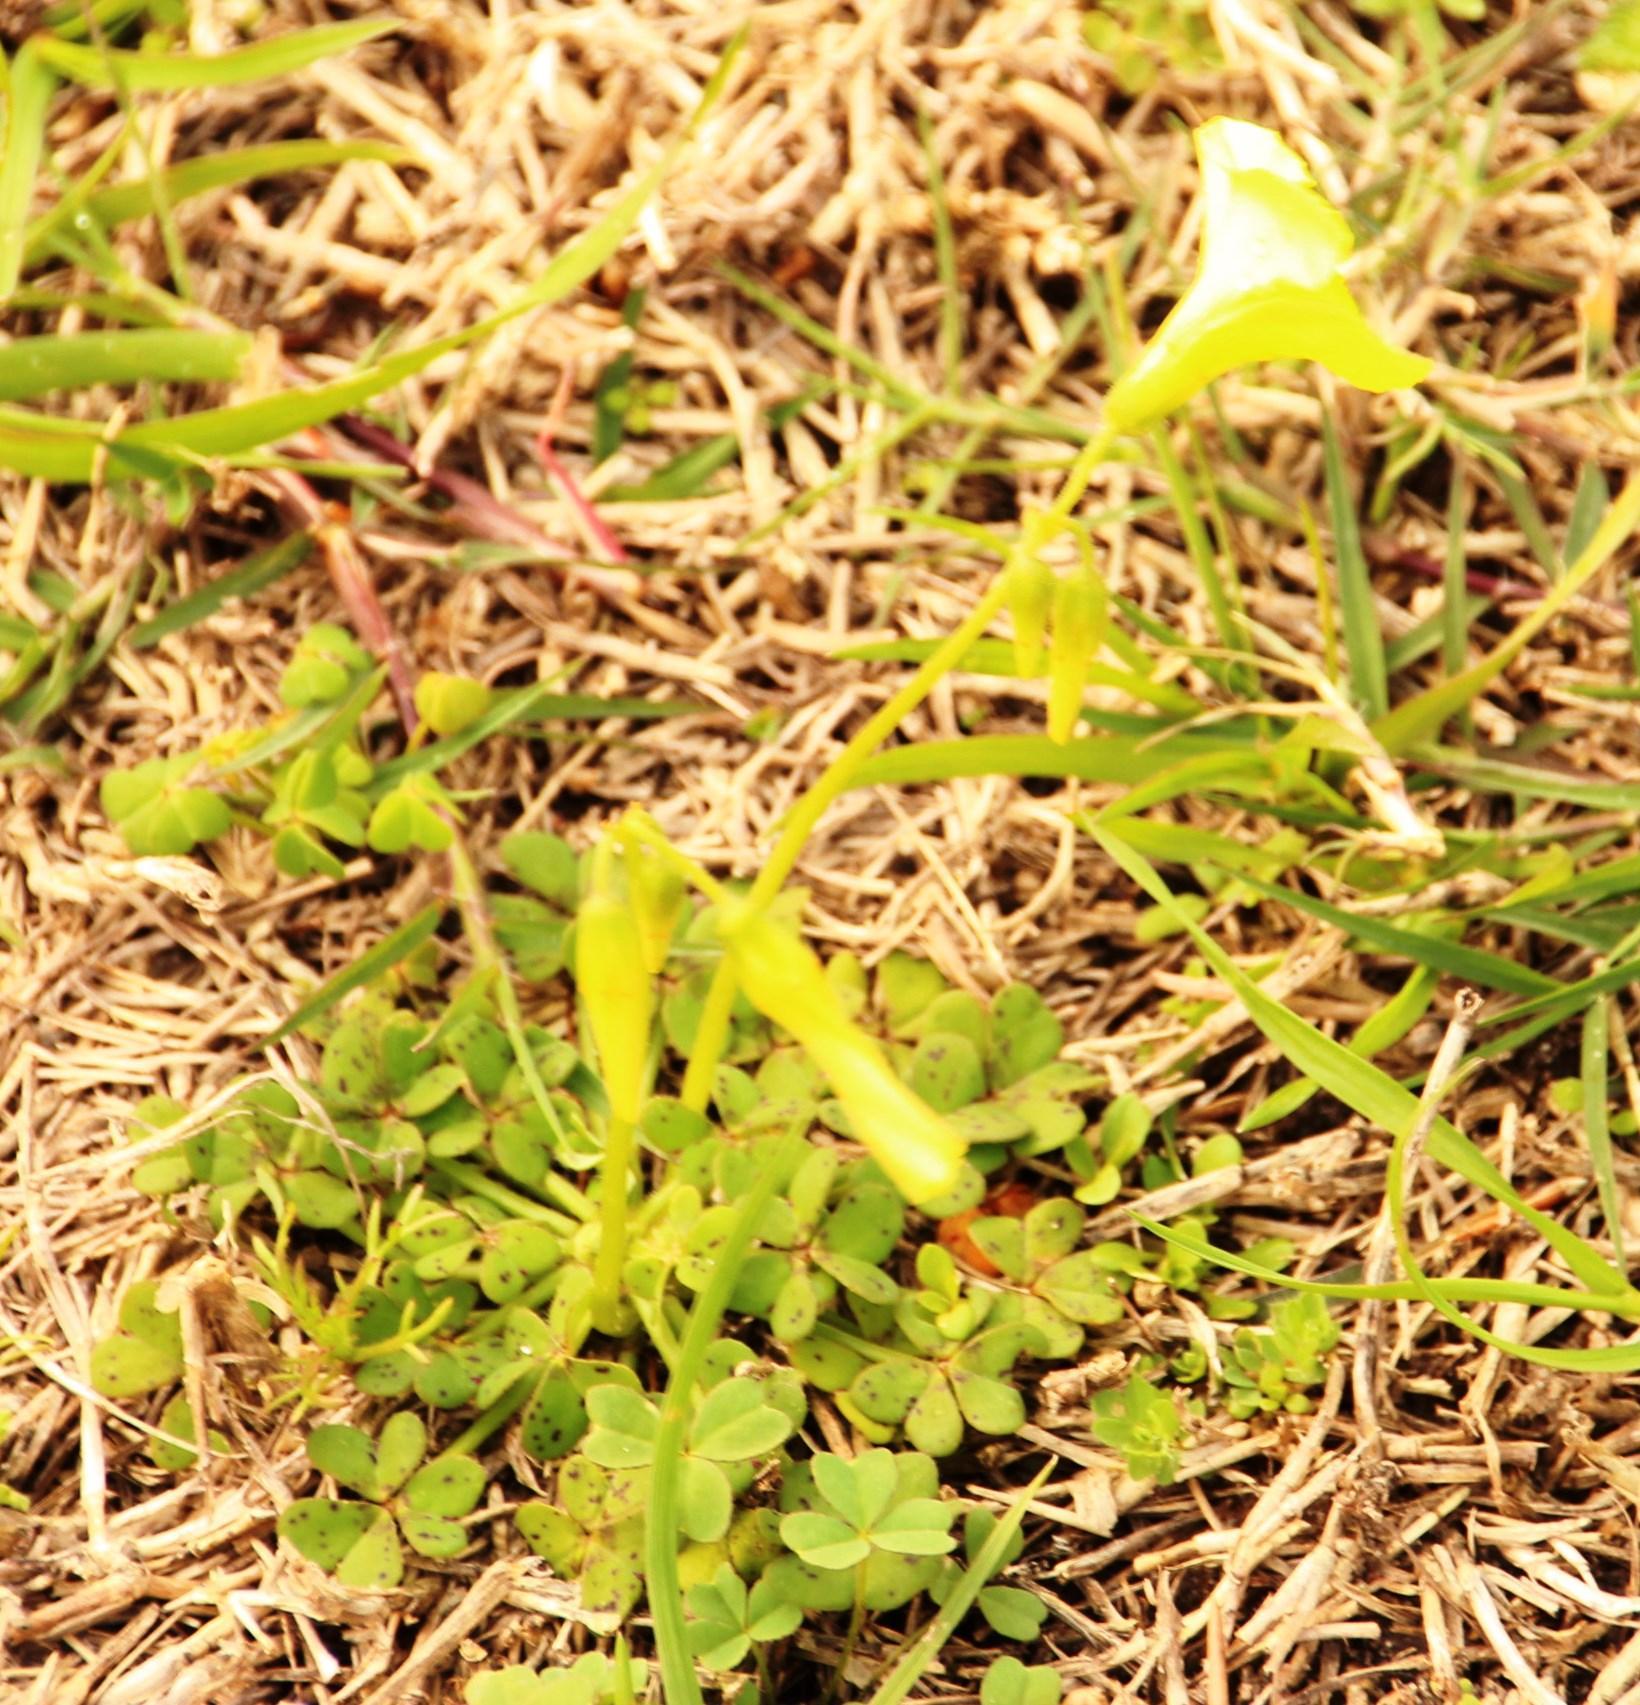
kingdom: Plantae
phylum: Tracheophyta
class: Magnoliopsida
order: Oxalidales
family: Oxalidaceae
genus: Oxalis
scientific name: Oxalis pes-caprae
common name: Bermuda-buttercup
